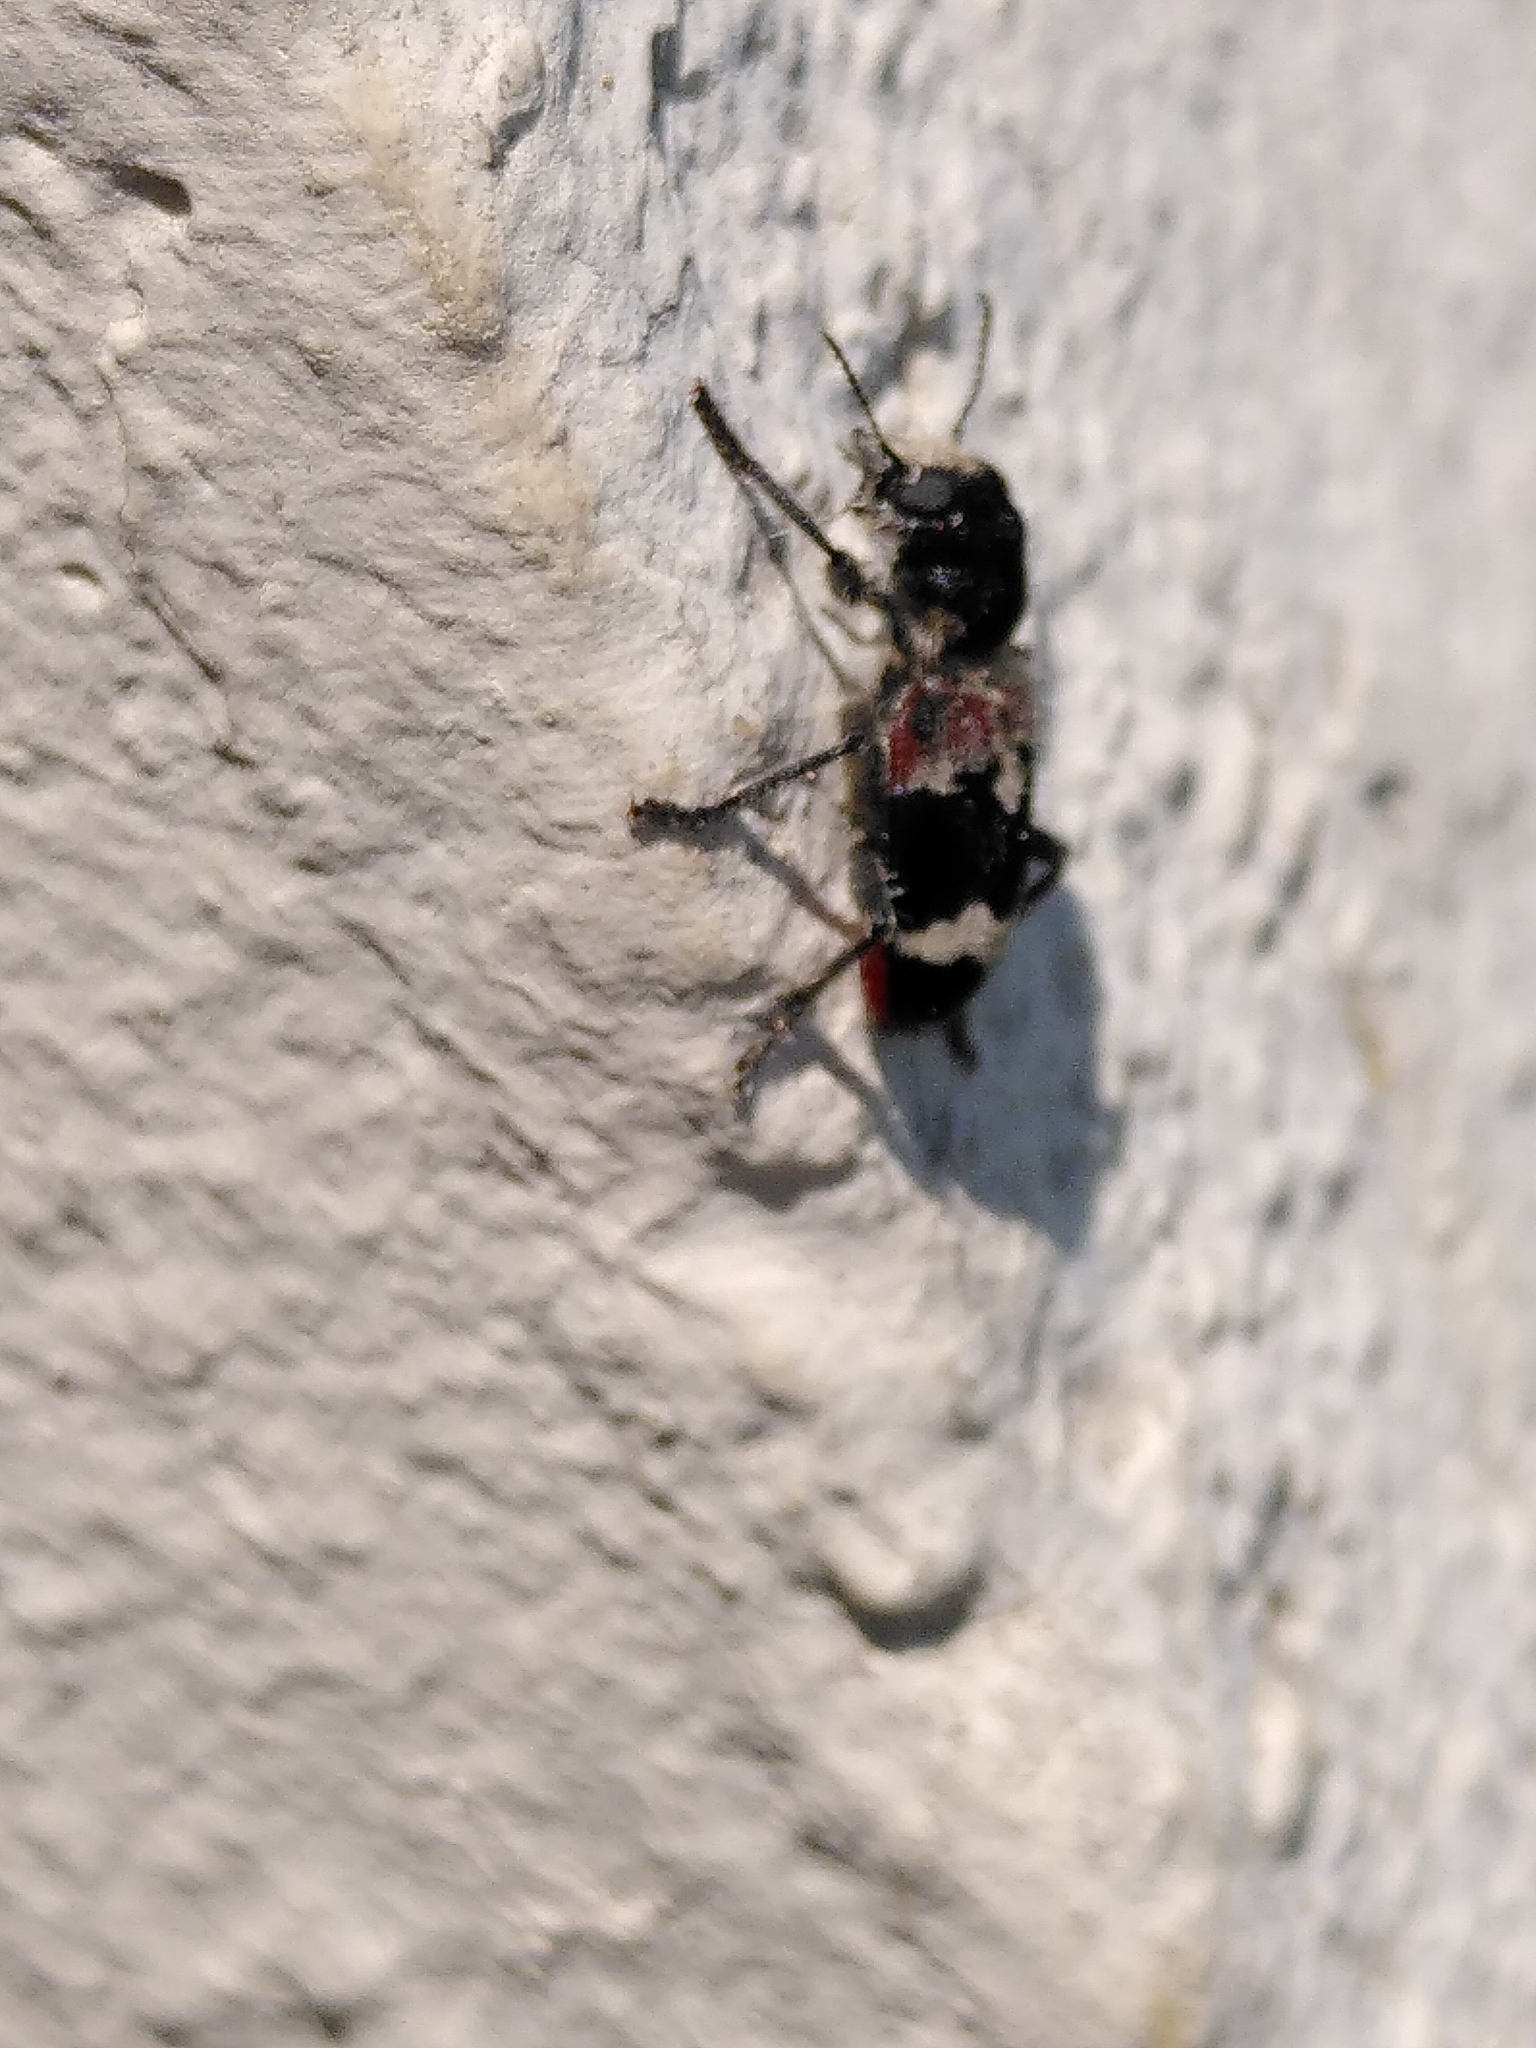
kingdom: Animalia
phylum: Arthropoda
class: Insecta
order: Coleoptera
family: Cleridae
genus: Clerus
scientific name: Clerus mutillarius
